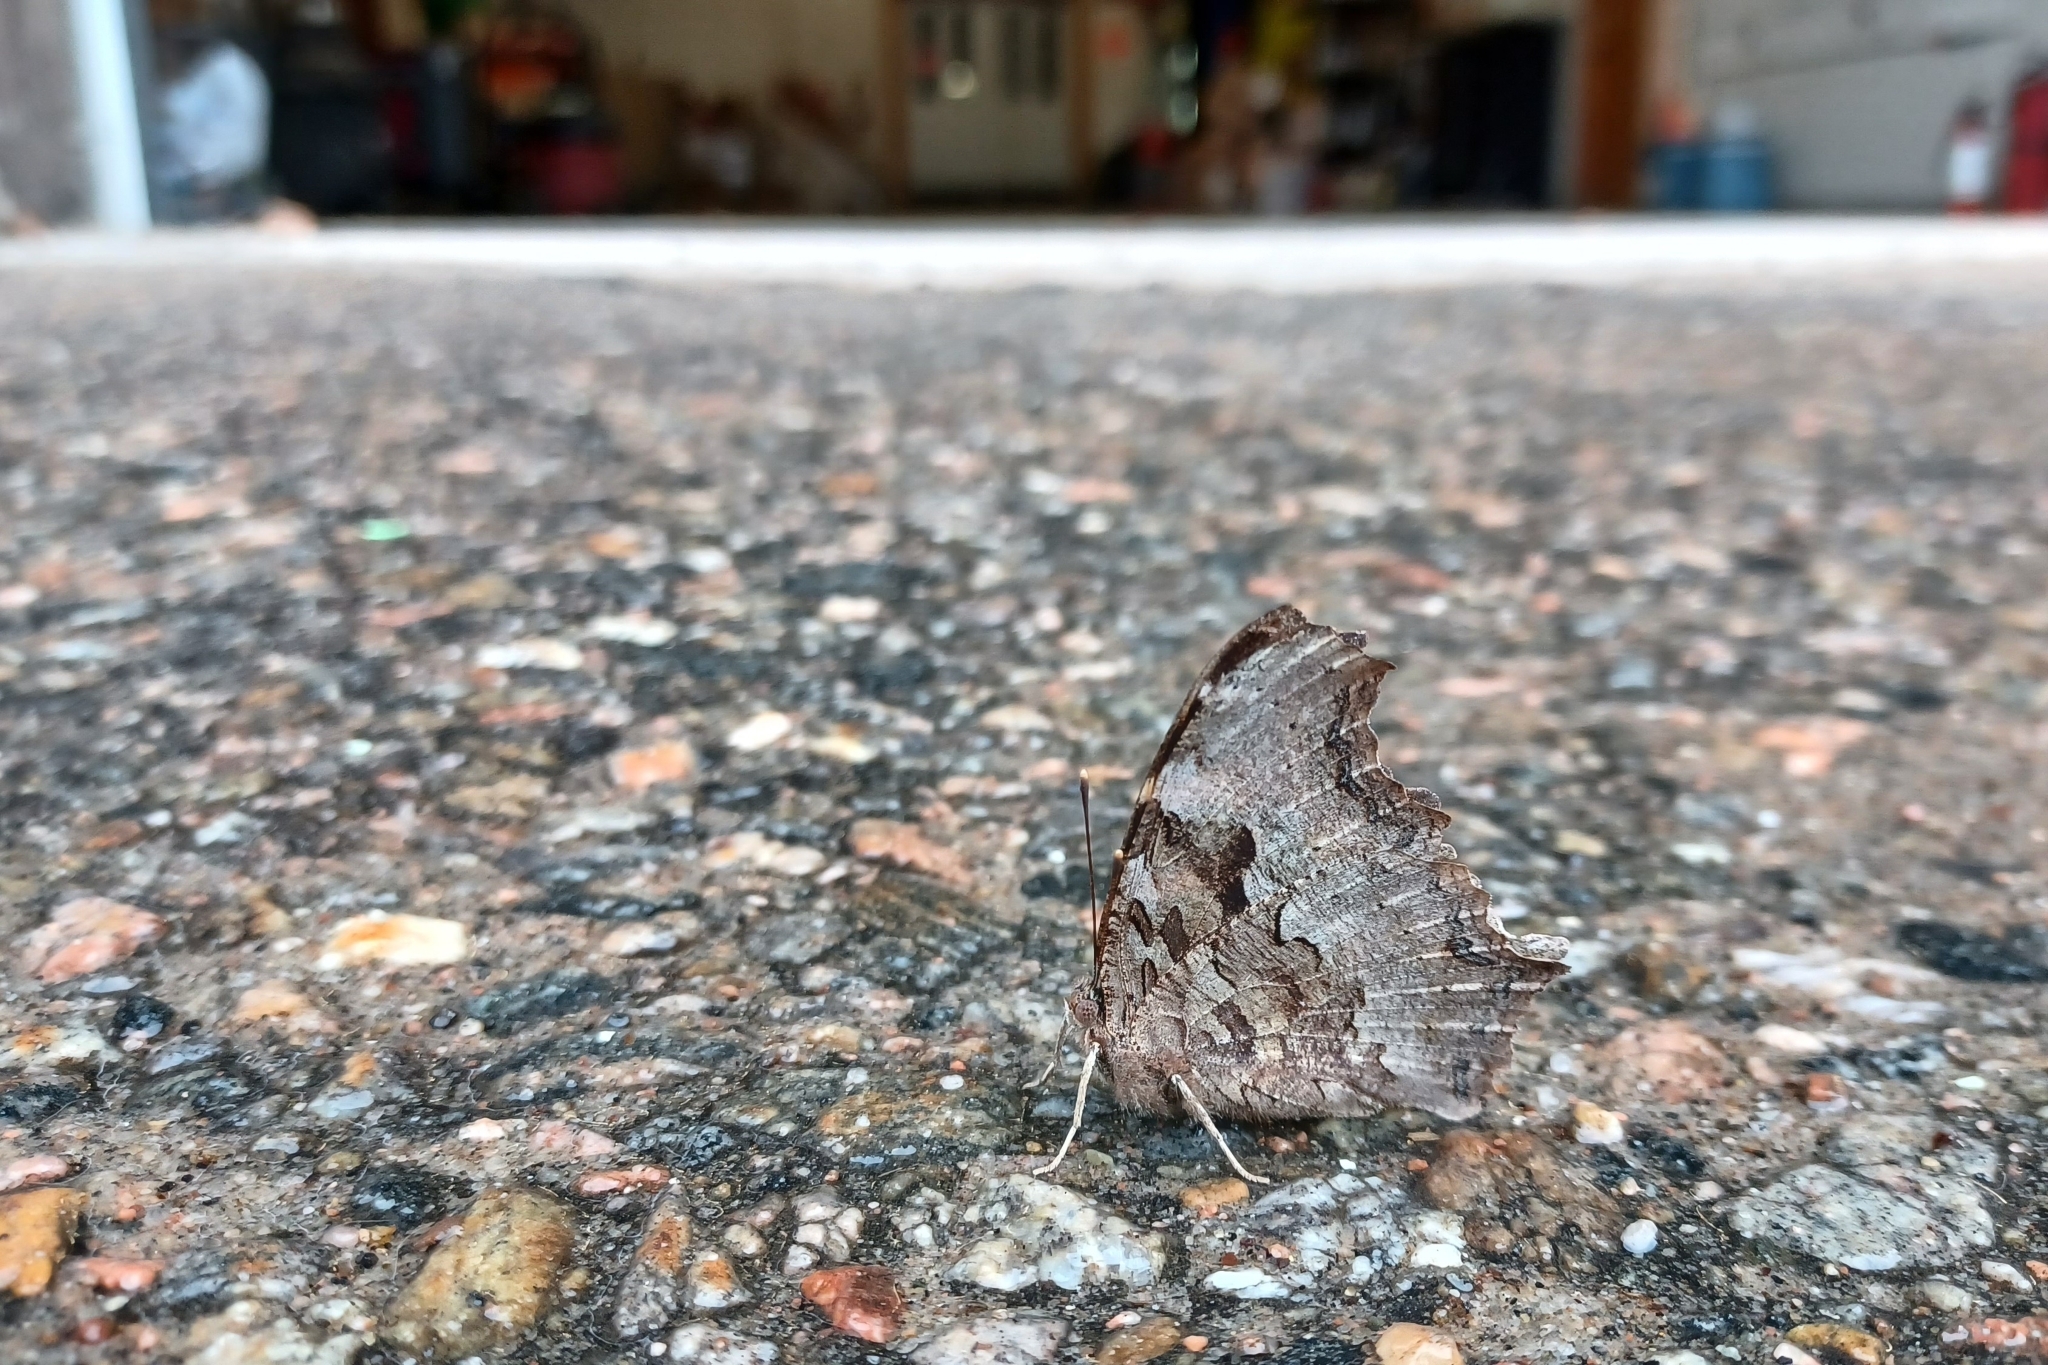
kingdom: Animalia
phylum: Arthropoda
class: Insecta
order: Lepidoptera
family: Nymphalidae
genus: Polygonia
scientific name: Polygonia vaualbum
